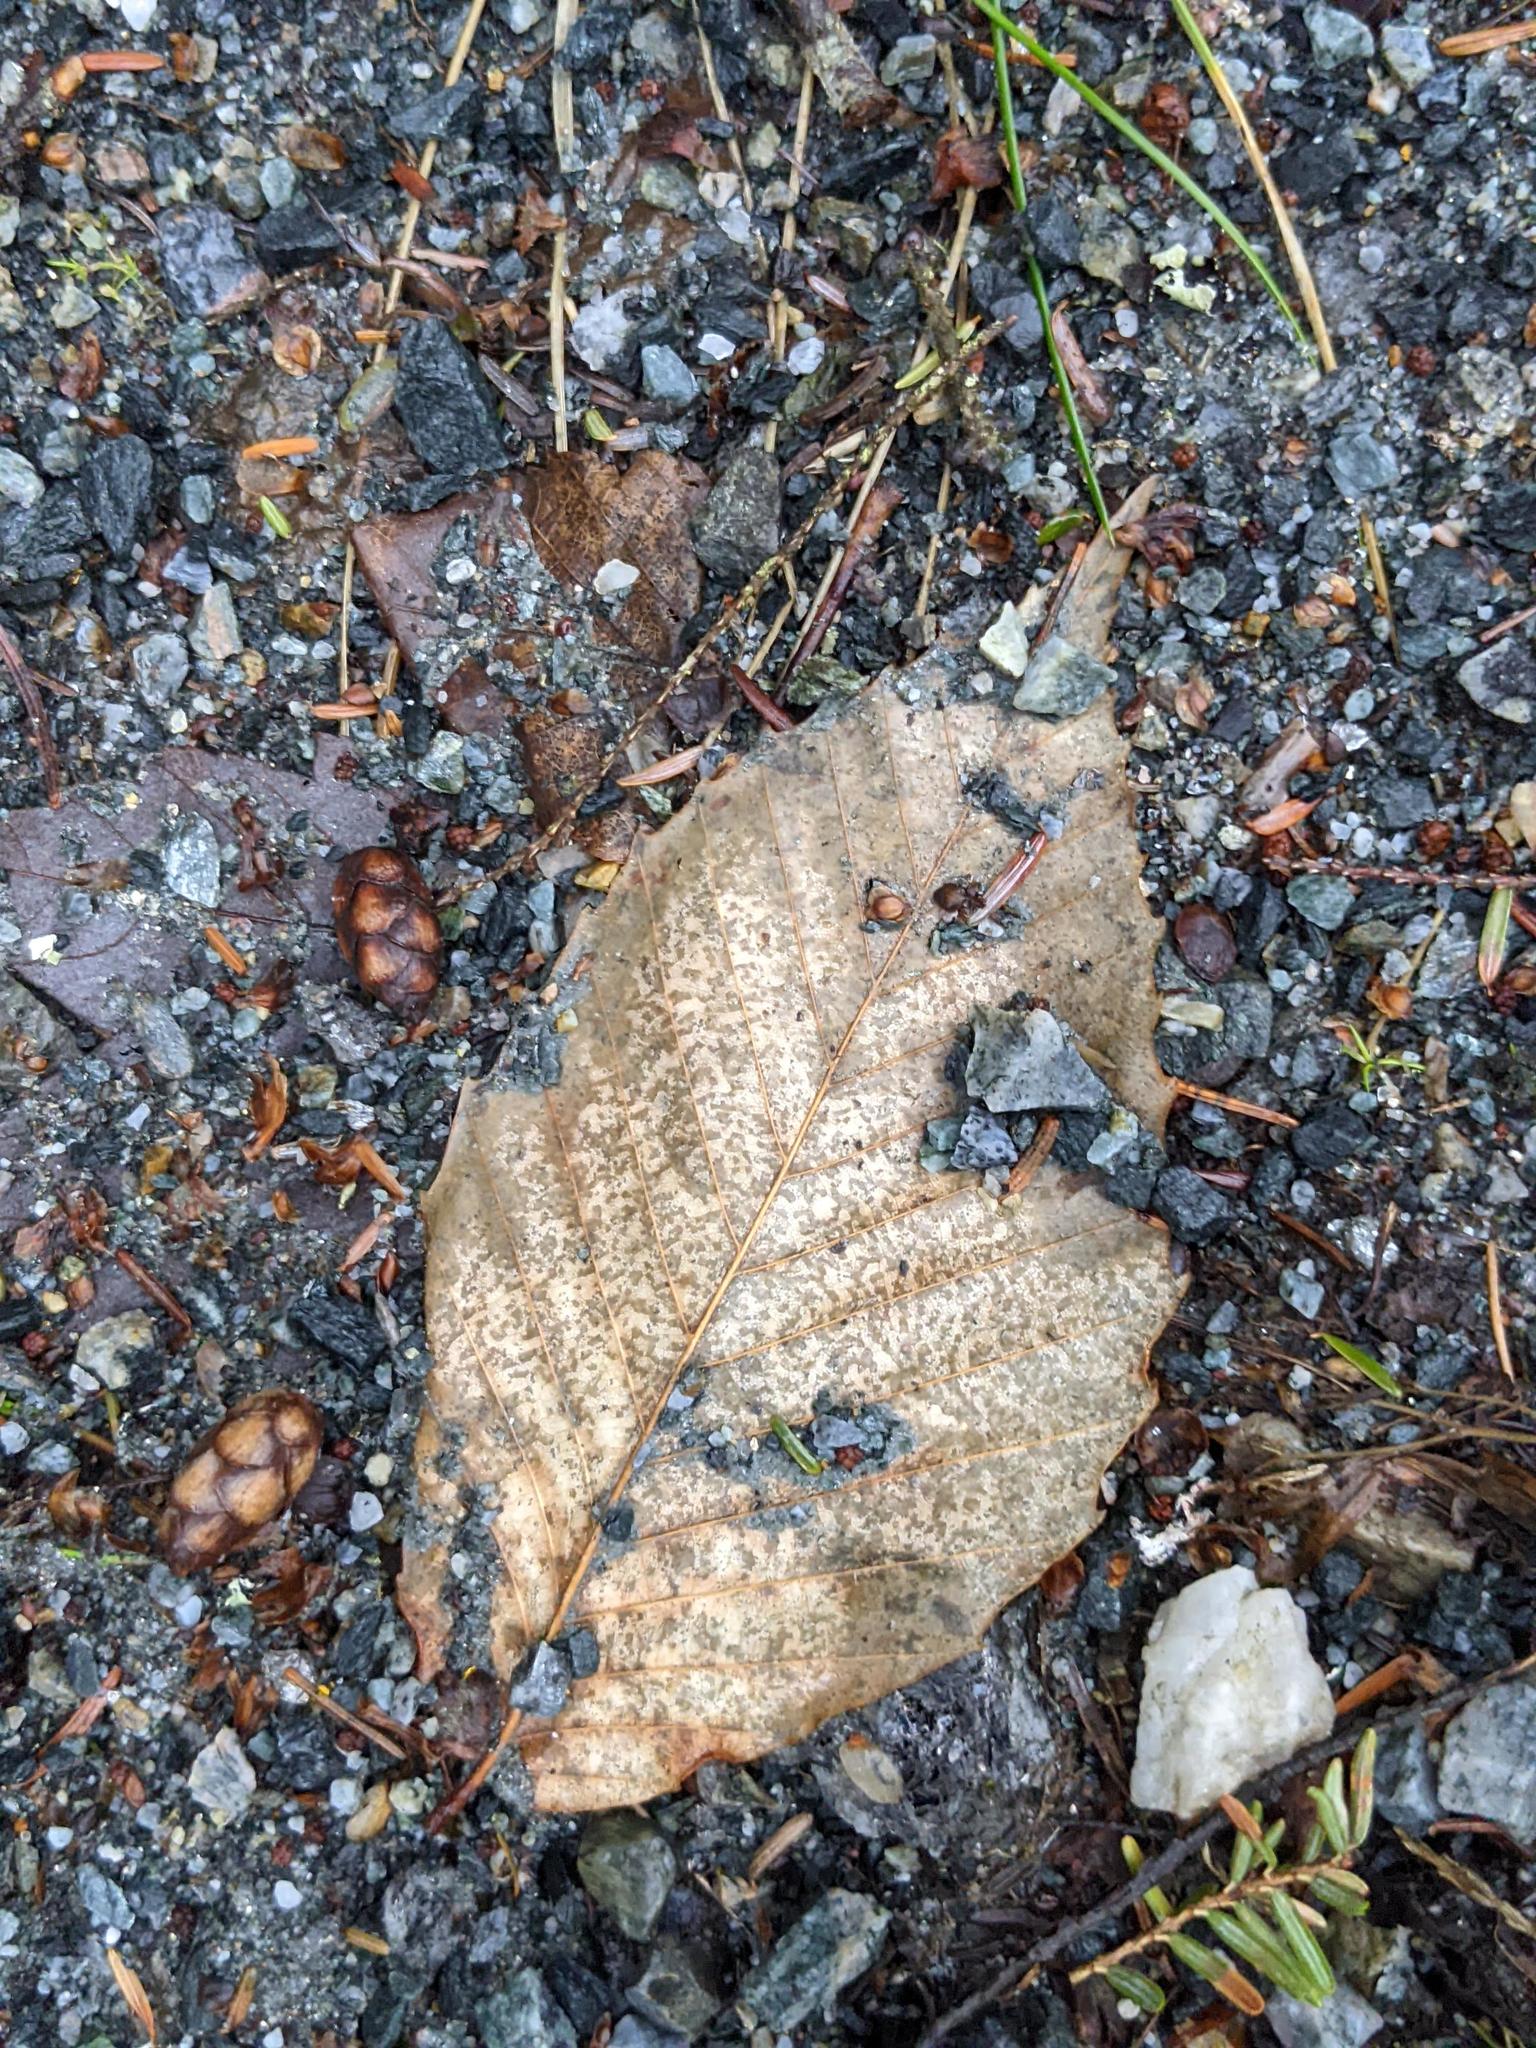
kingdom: Plantae
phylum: Tracheophyta
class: Magnoliopsida
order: Fagales
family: Fagaceae
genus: Fagus
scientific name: Fagus grandifolia
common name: American beech
